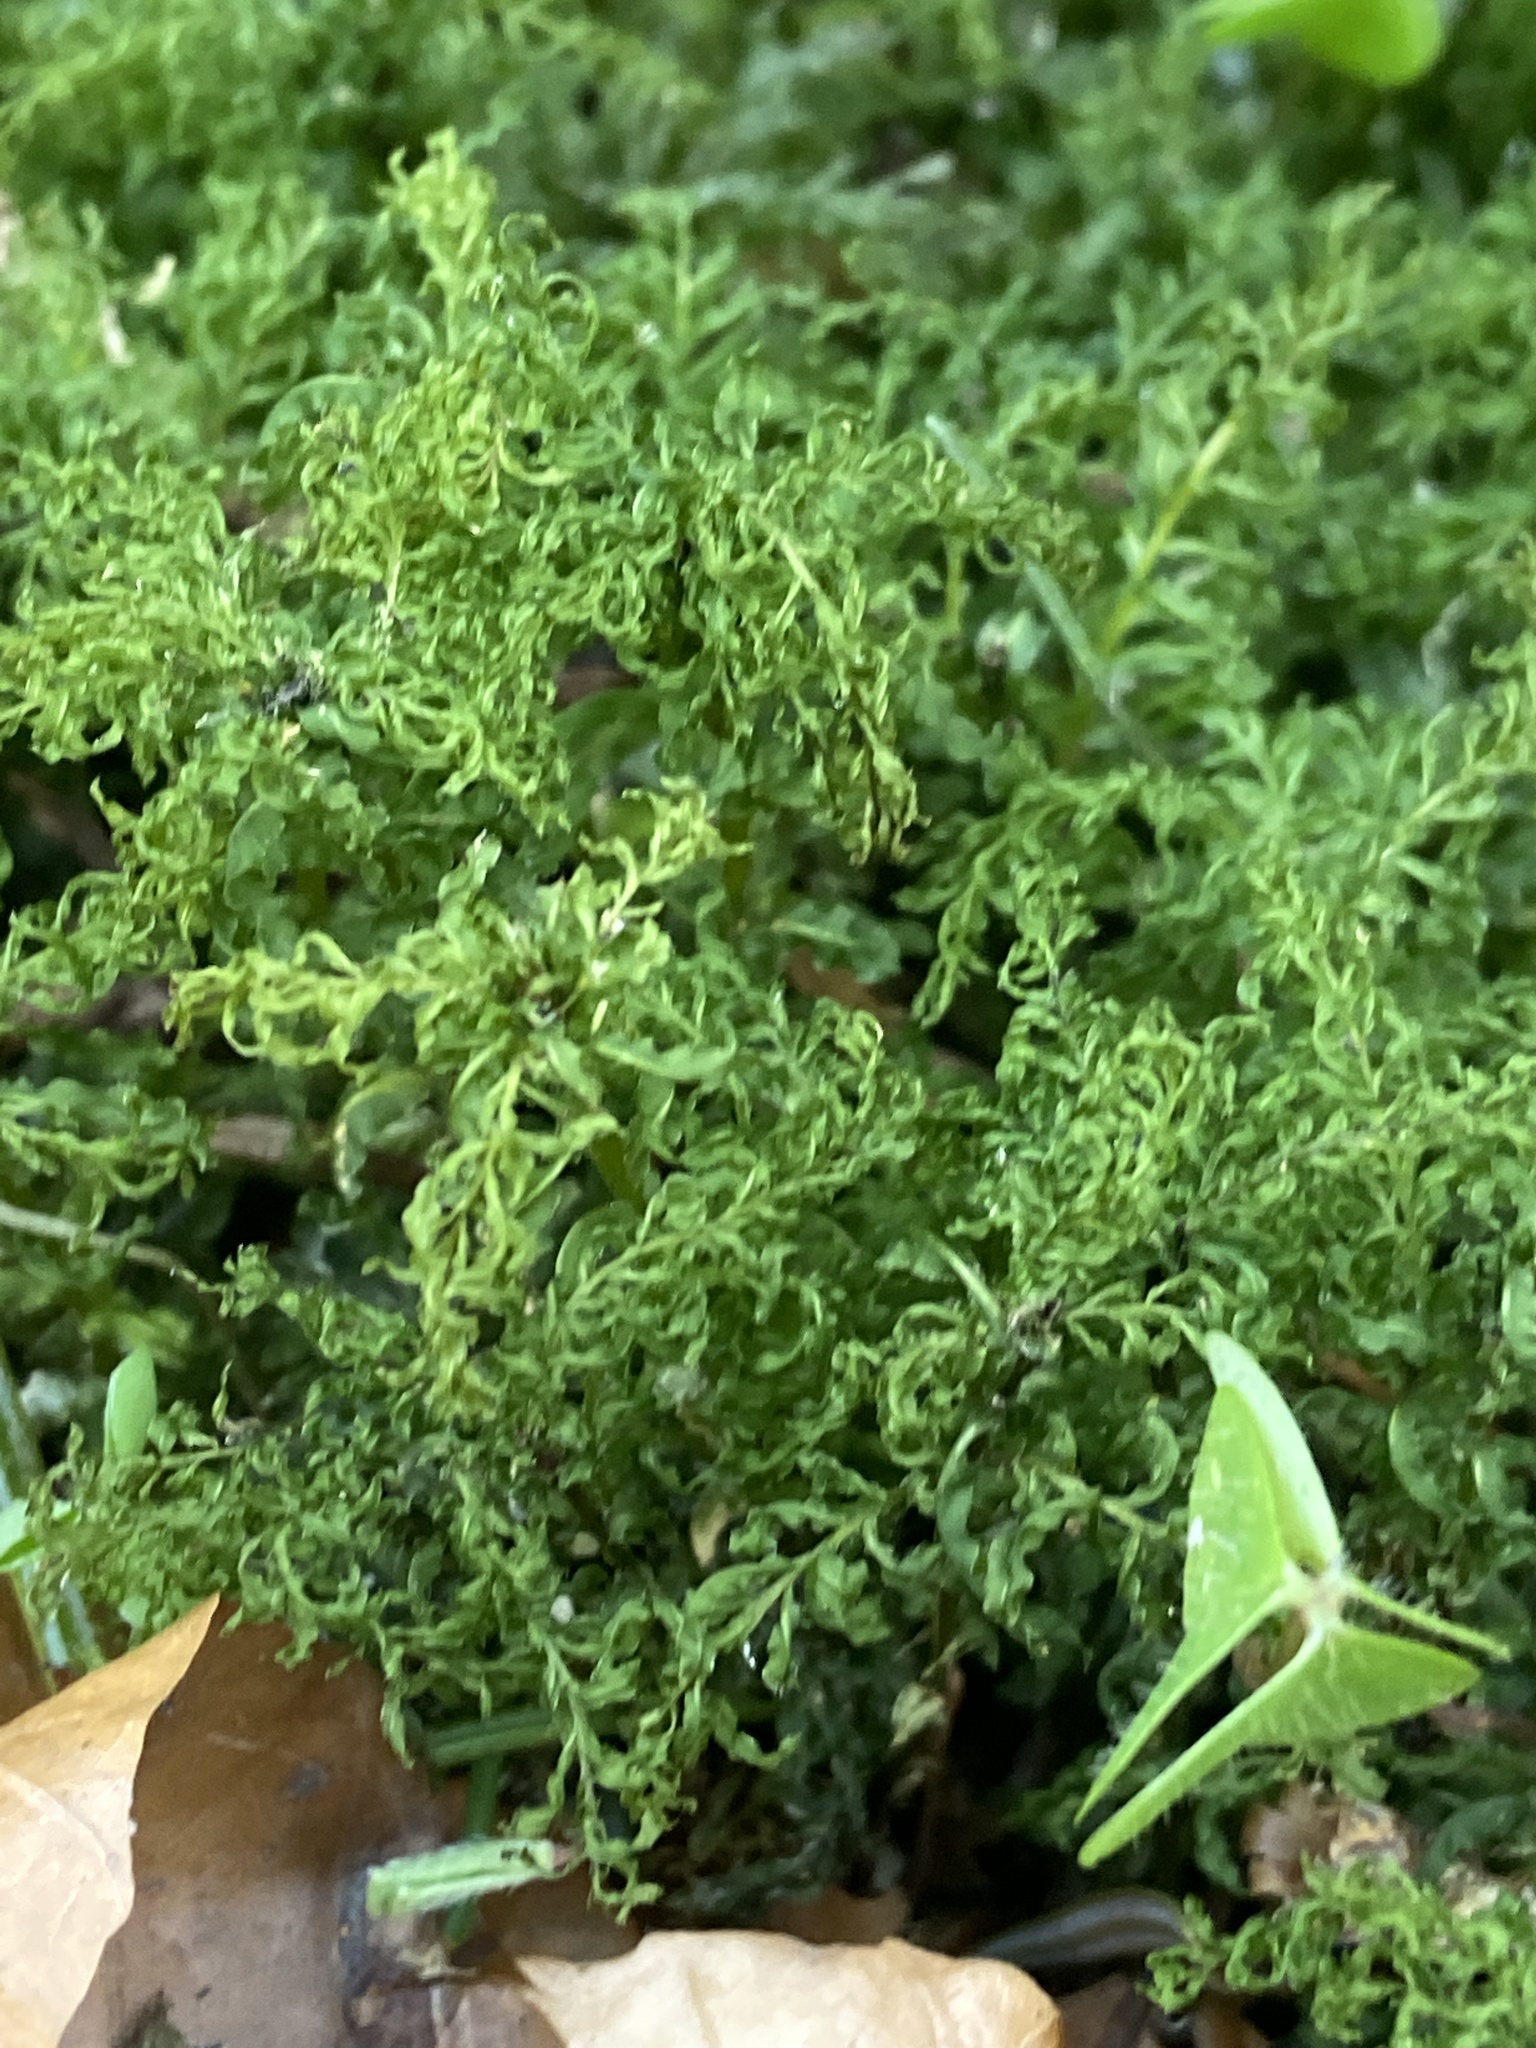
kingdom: Plantae
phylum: Bryophyta
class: Bryopsida
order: Bryales
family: Mniaceae
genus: Plagiomnium
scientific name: Plagiomnium undulatum
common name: Hart's-tongue thyme-moss
